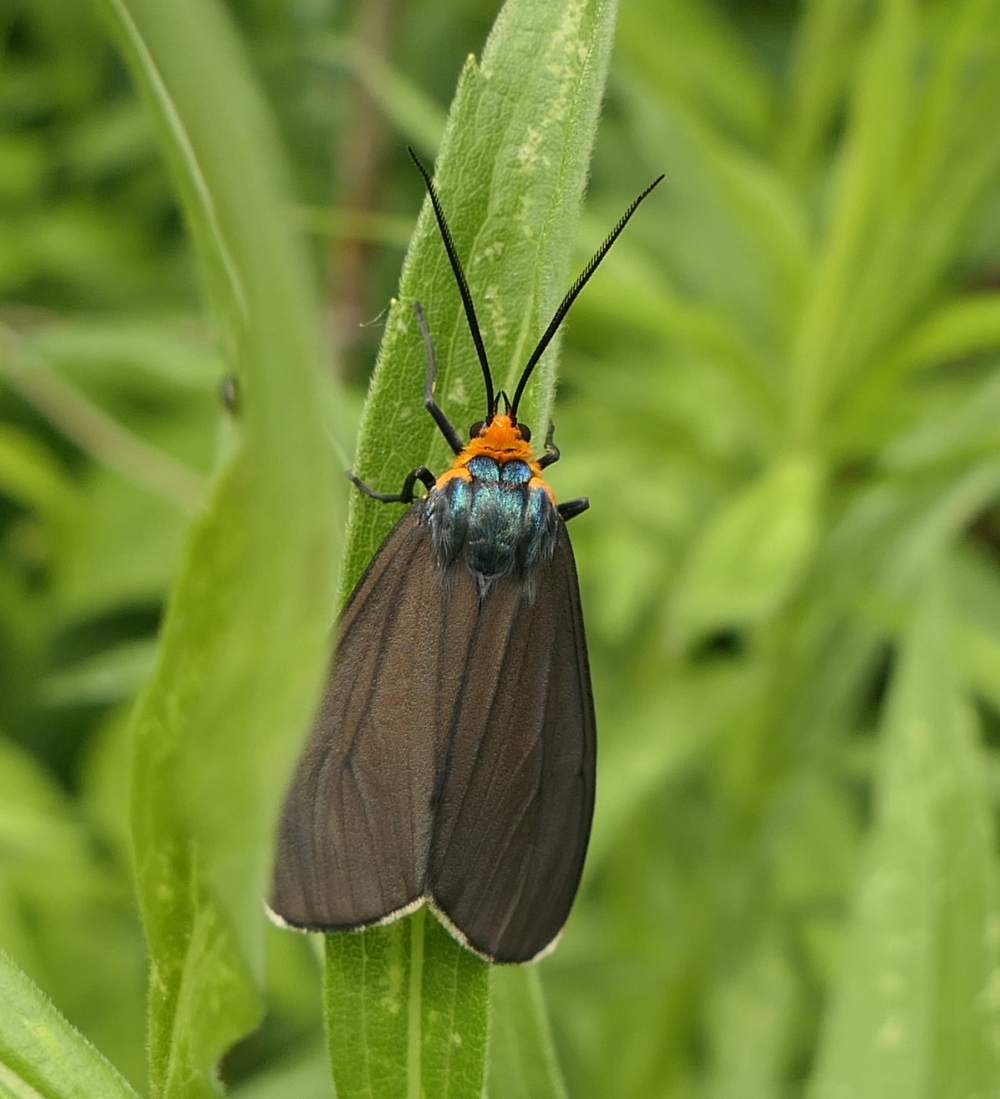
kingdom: Animalia
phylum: Arthropoda
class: Insecta
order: Lepidoptera
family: Erebidae
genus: Ctenucha
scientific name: Ctenucha virginica
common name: Virginia ctenucha moth
